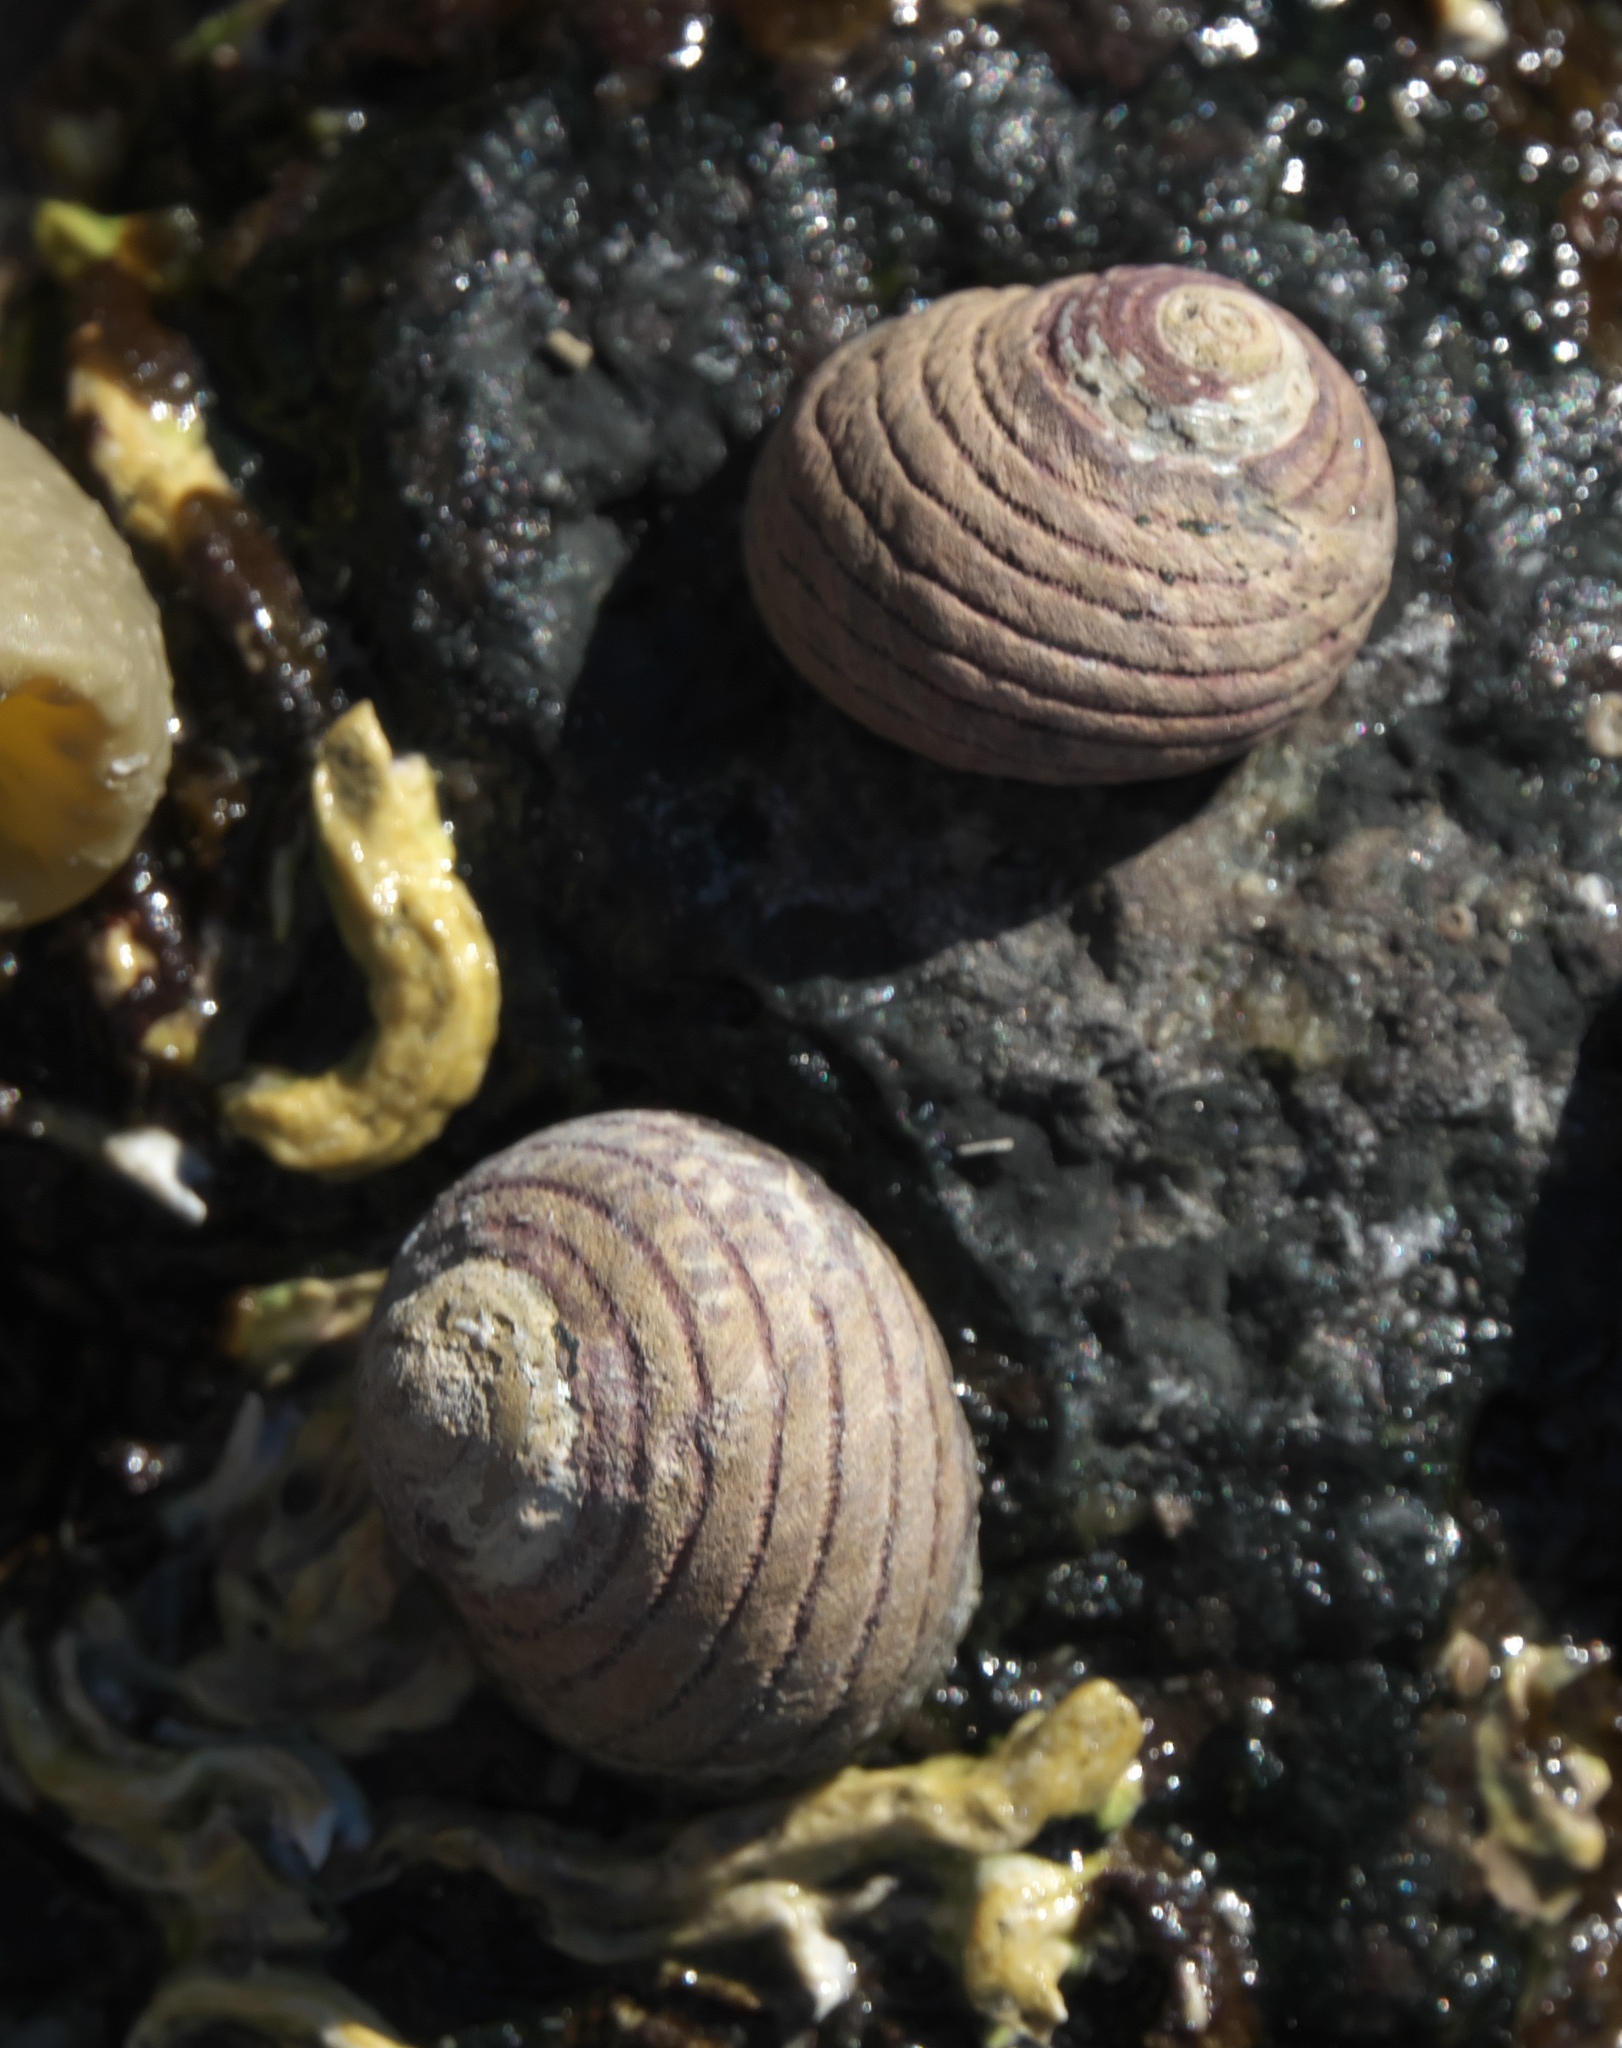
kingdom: Animalia
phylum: Mollusca
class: Gastropoda
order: Trochida
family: Trochidae
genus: Diloma
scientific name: Diloma aethiops
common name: Scorched monodont
